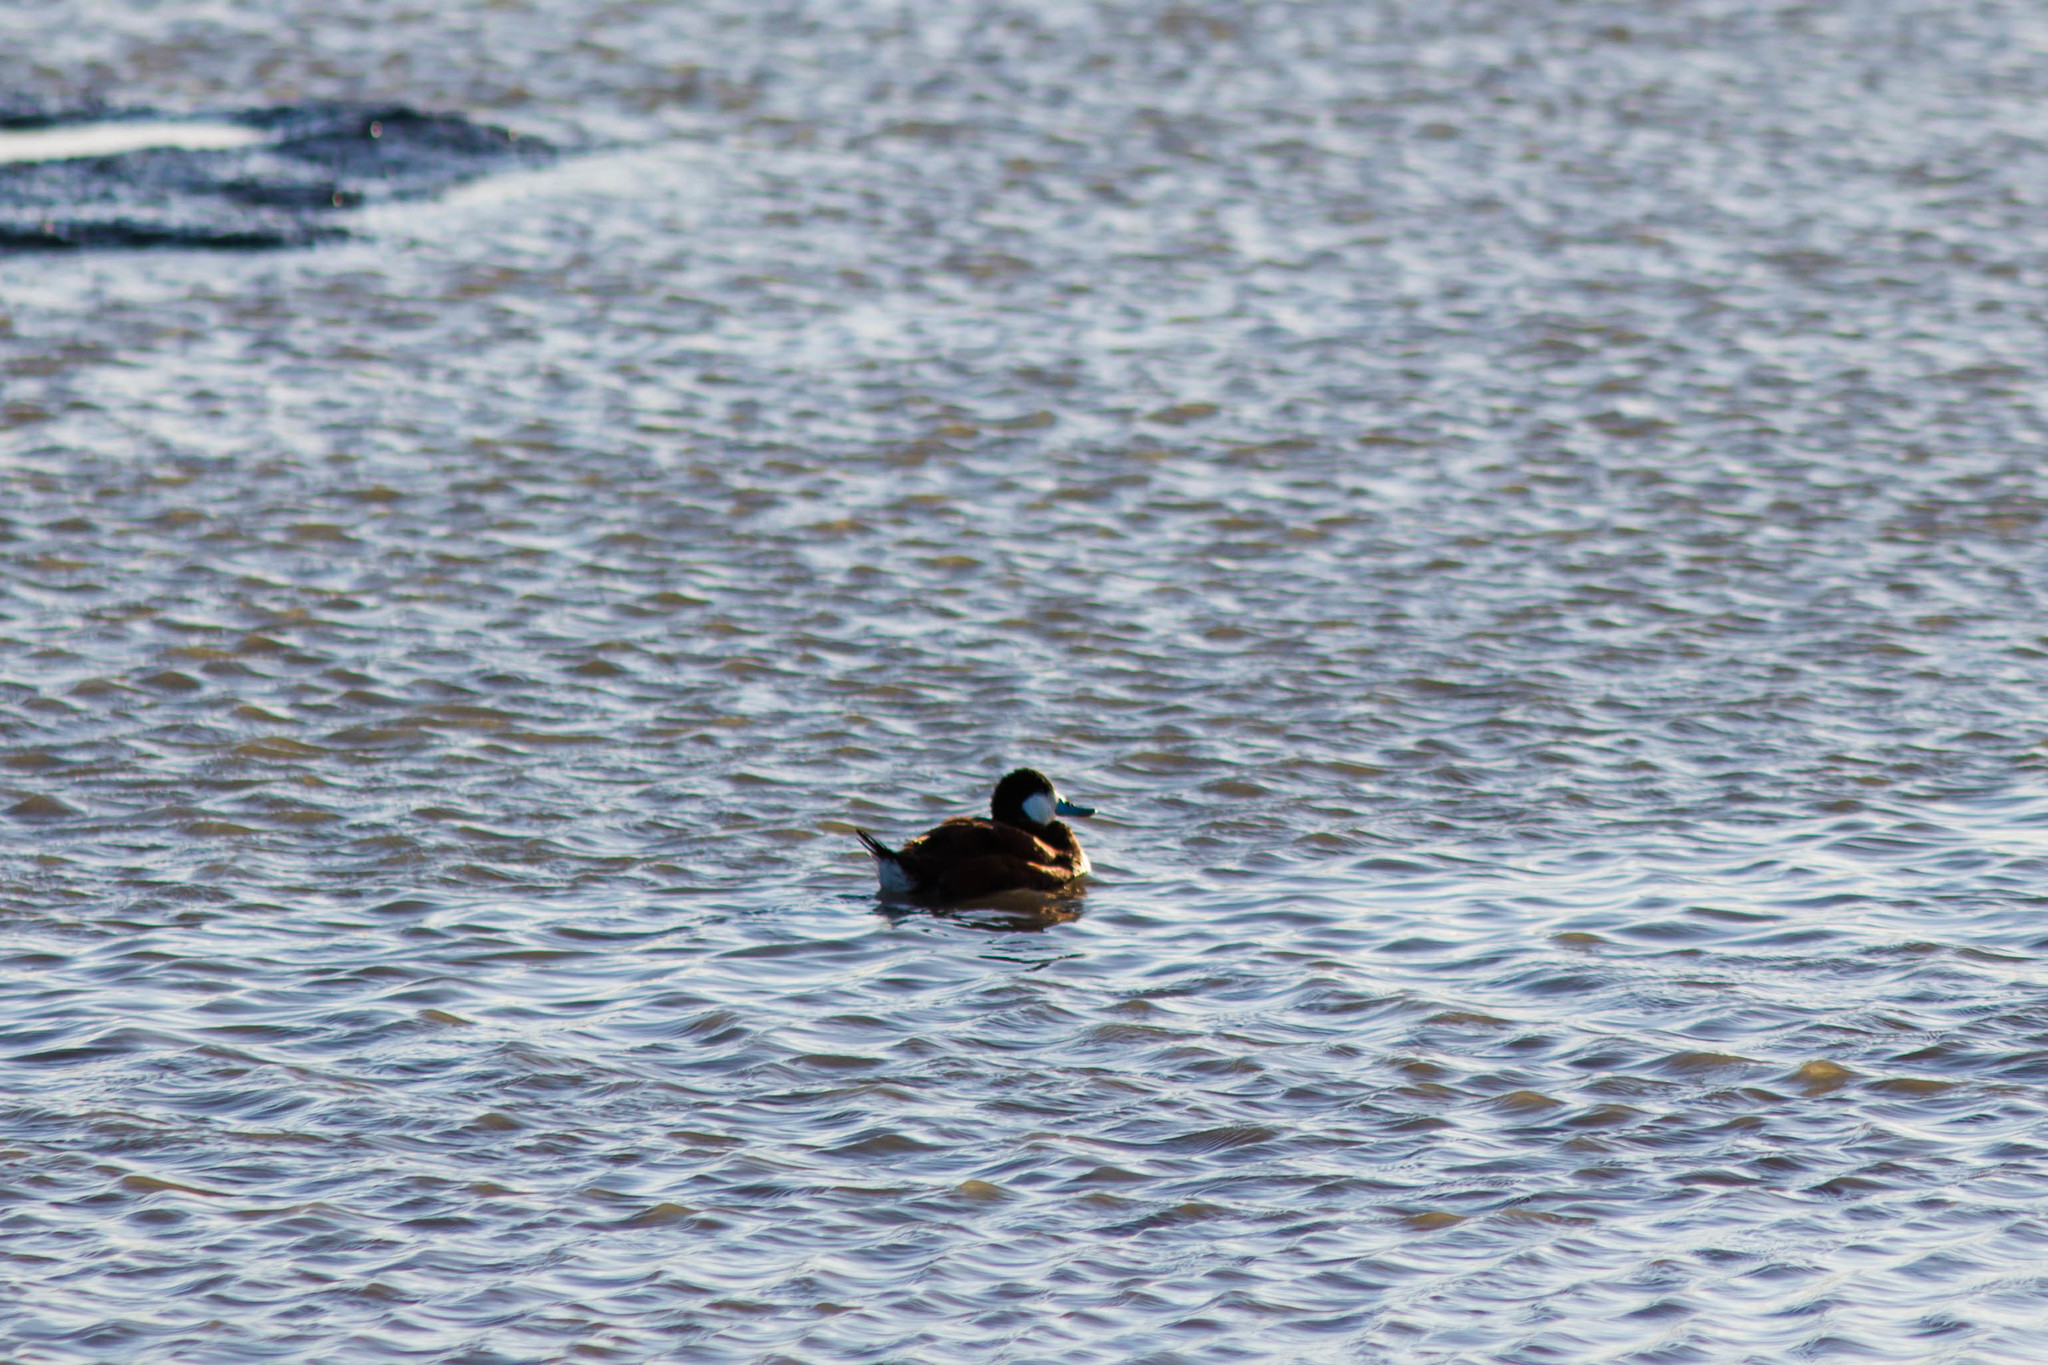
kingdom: Animalia
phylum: Chordata
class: Aves
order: Anseriformes
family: Anatidae
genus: Oxyura
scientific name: Oxyura jamaicensis
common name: Ruddy duck
